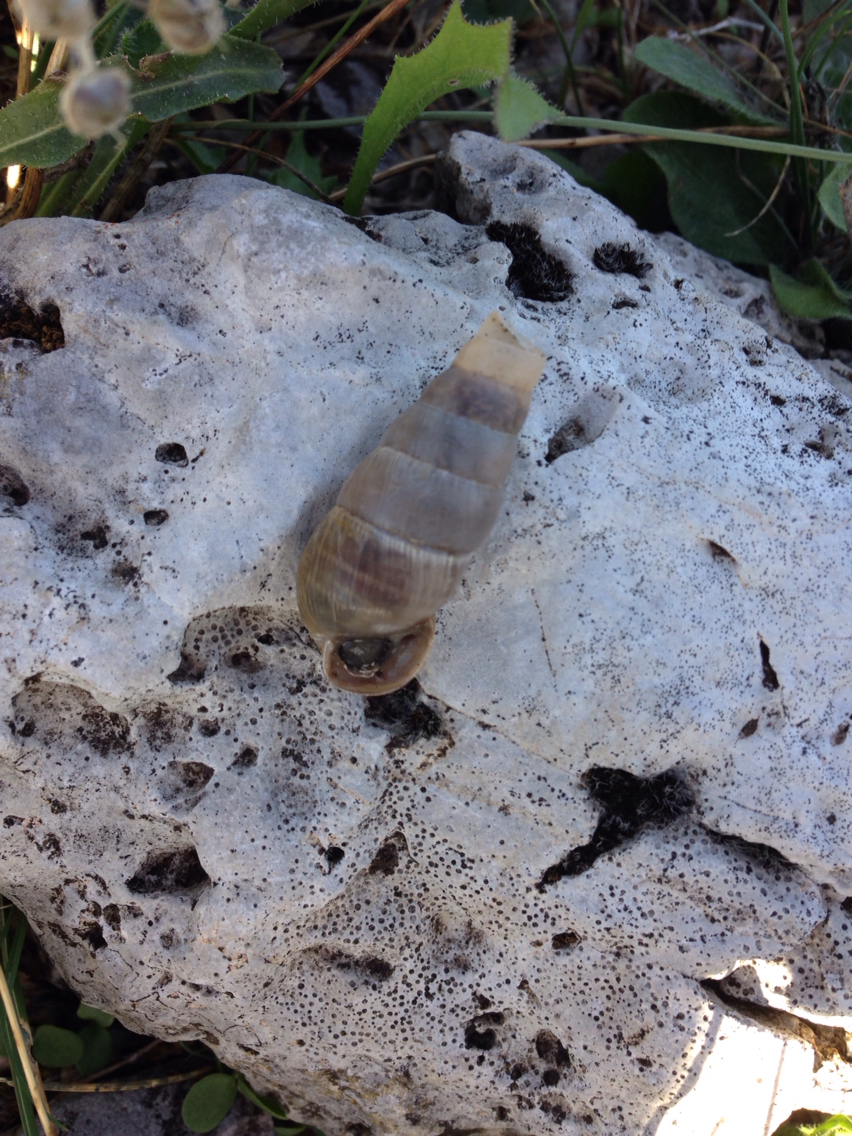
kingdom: Animalia
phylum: Mollusca
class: Gastropoda
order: Stylommatophora
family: Achatinidae
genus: Rumina
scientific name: Rumina decollata
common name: Decollate snail
